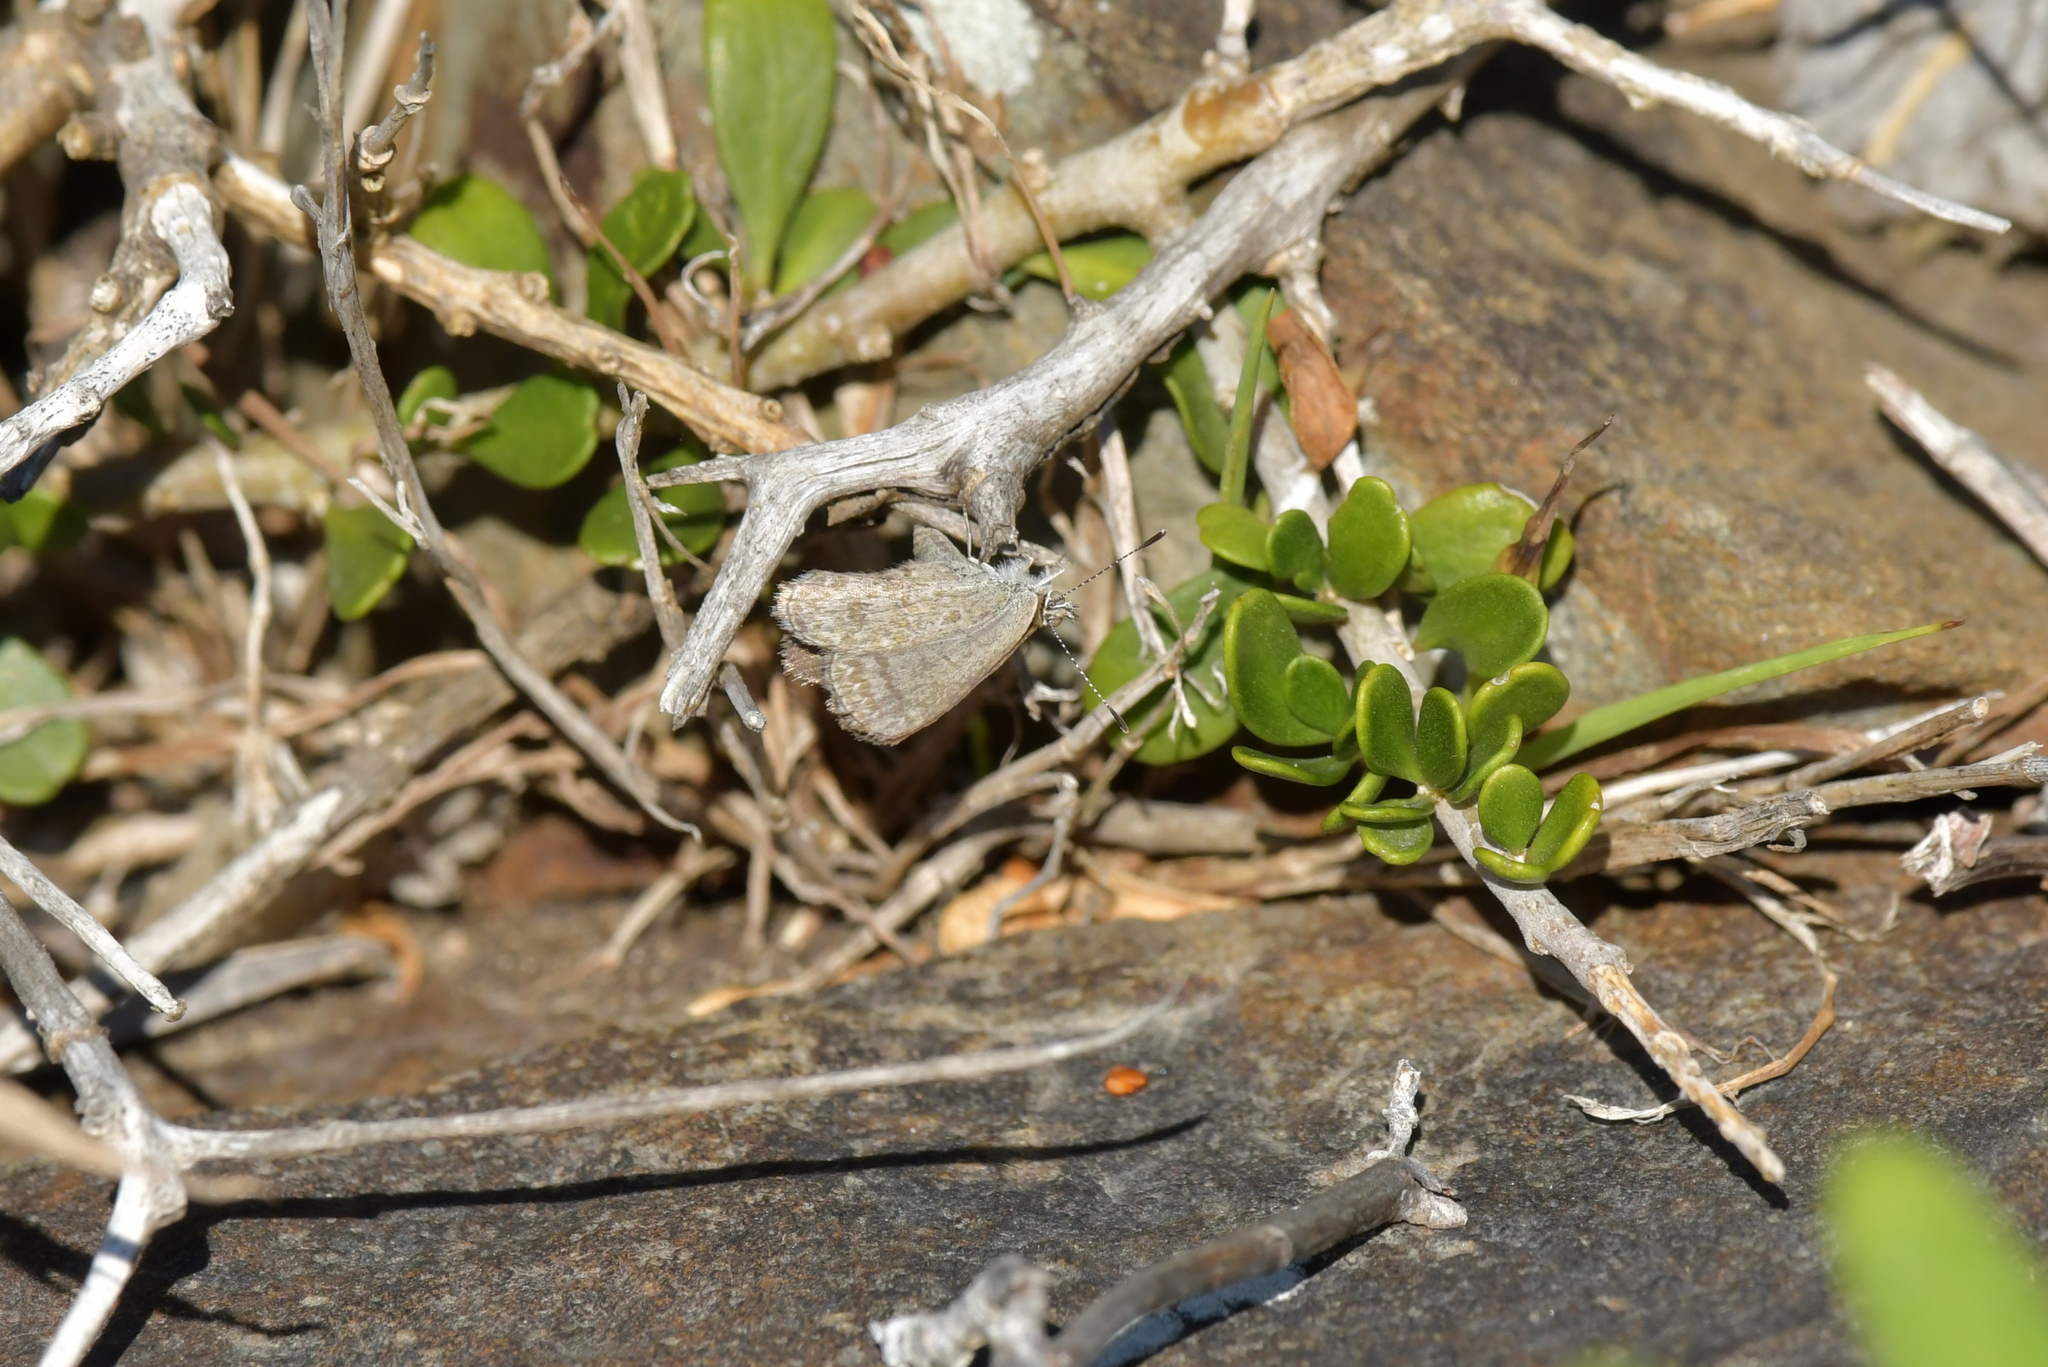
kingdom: Animalia
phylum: Arthropoda
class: Insecta
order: Lepidoptera
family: Lycaenidae
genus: Zizina
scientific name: Zizina labradus
